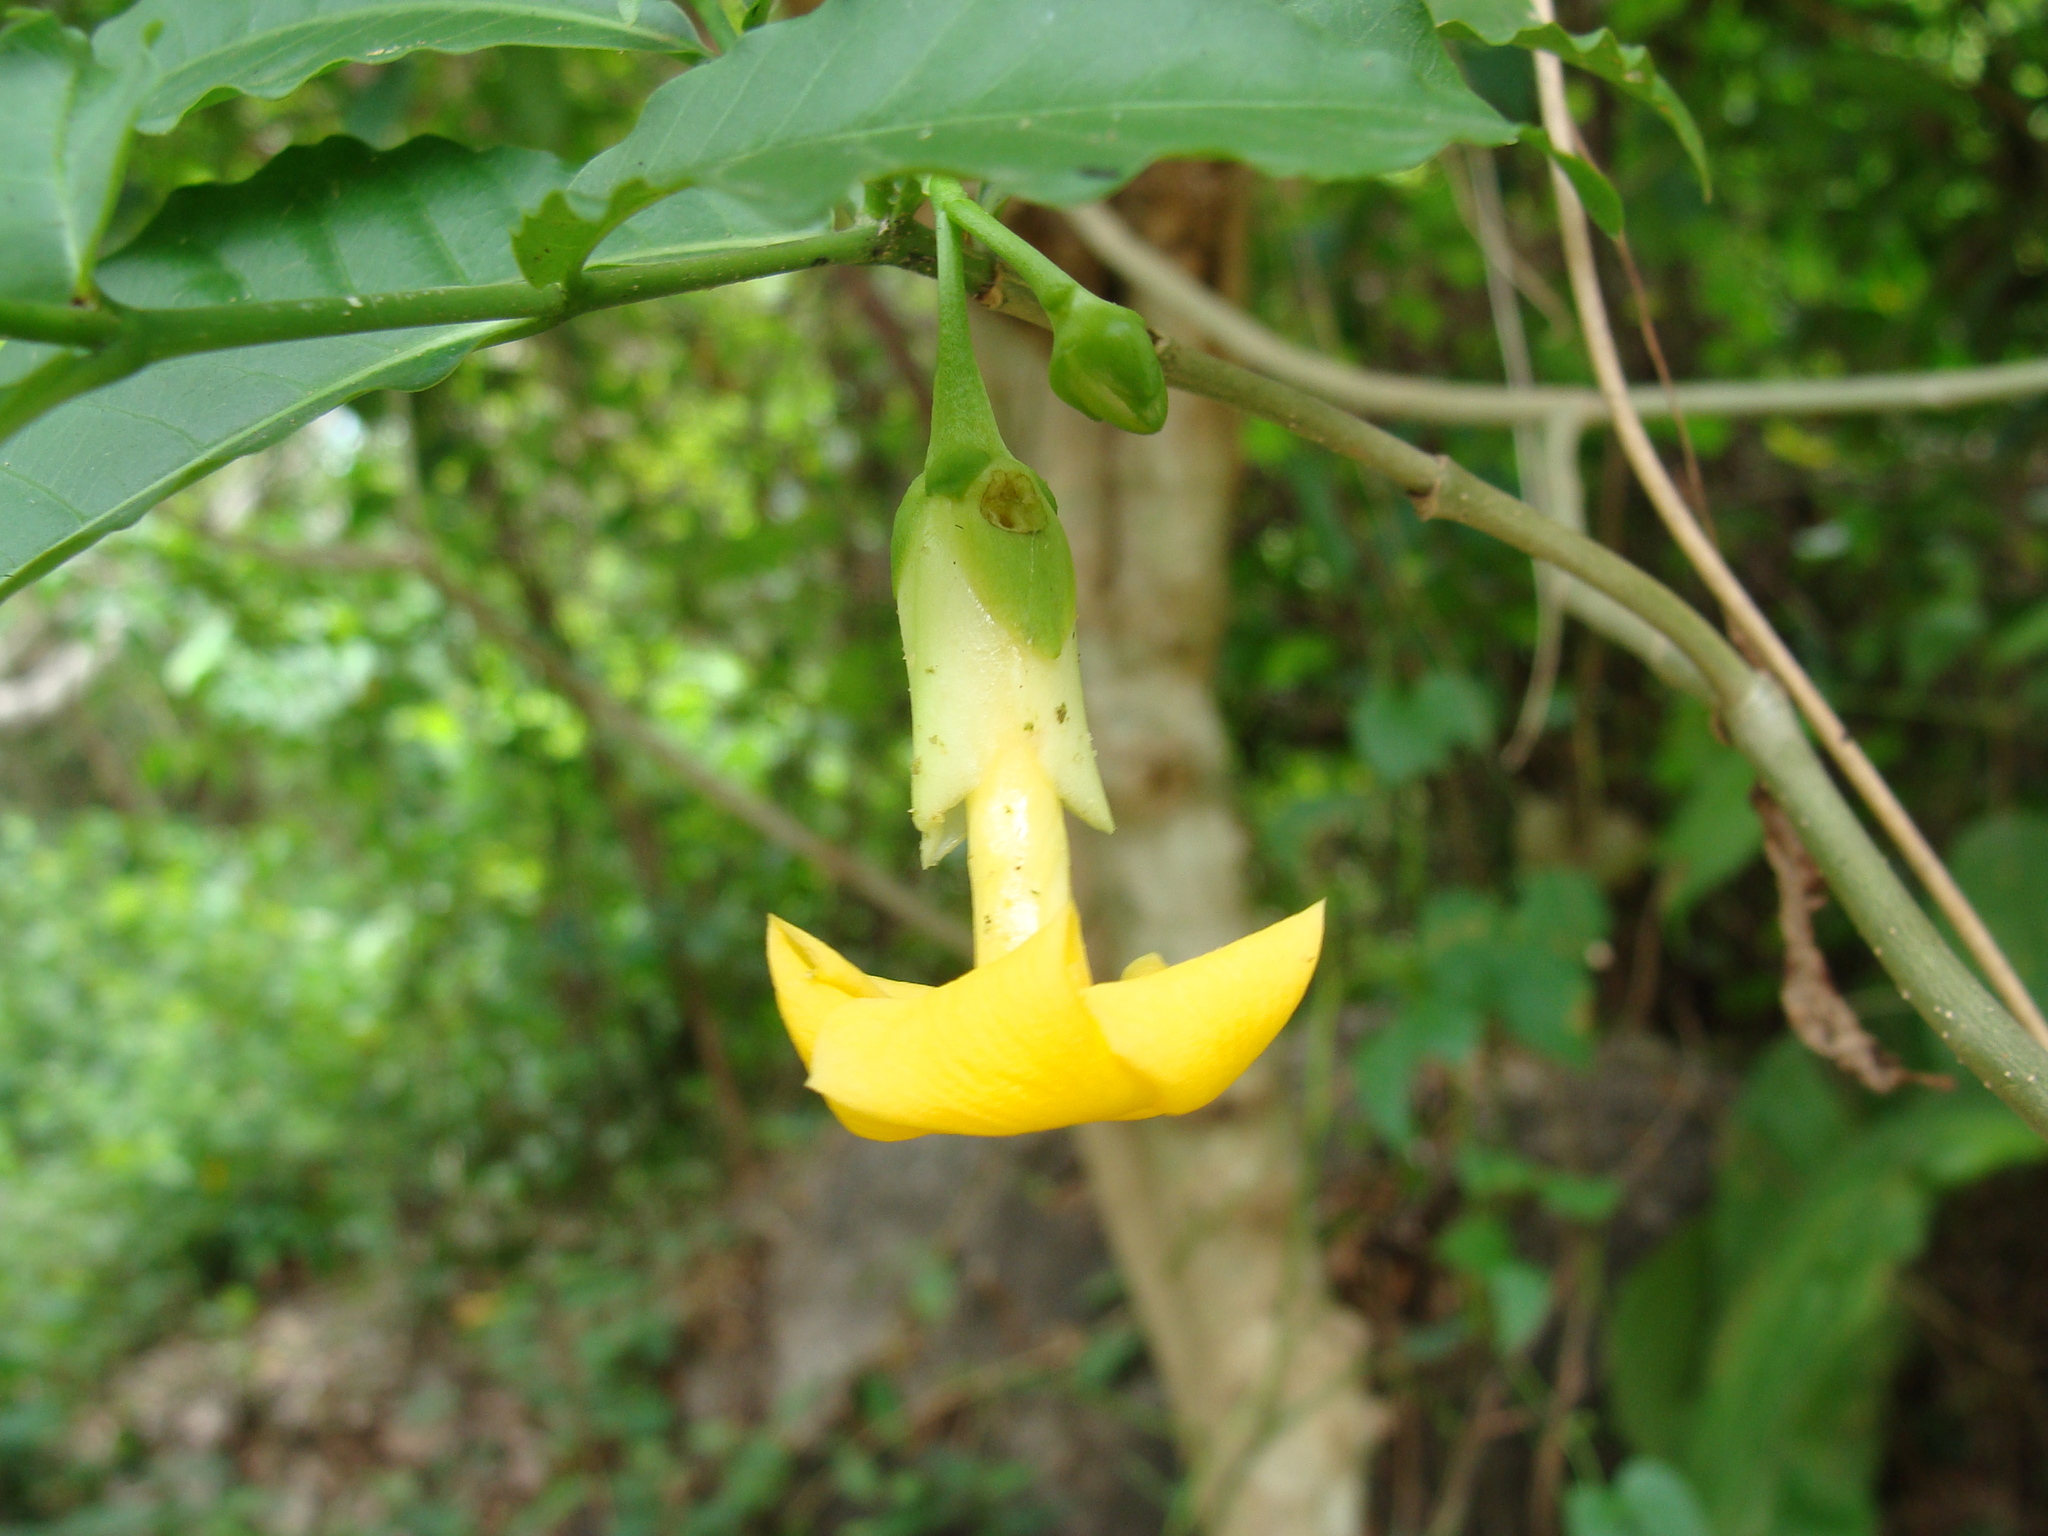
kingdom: Plantae
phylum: Tracheophyta
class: Magnoliopsida
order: Gentianales
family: Apocynaceae
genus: Tabernaemontana
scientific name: Tabernaemontana donnell-smithii
